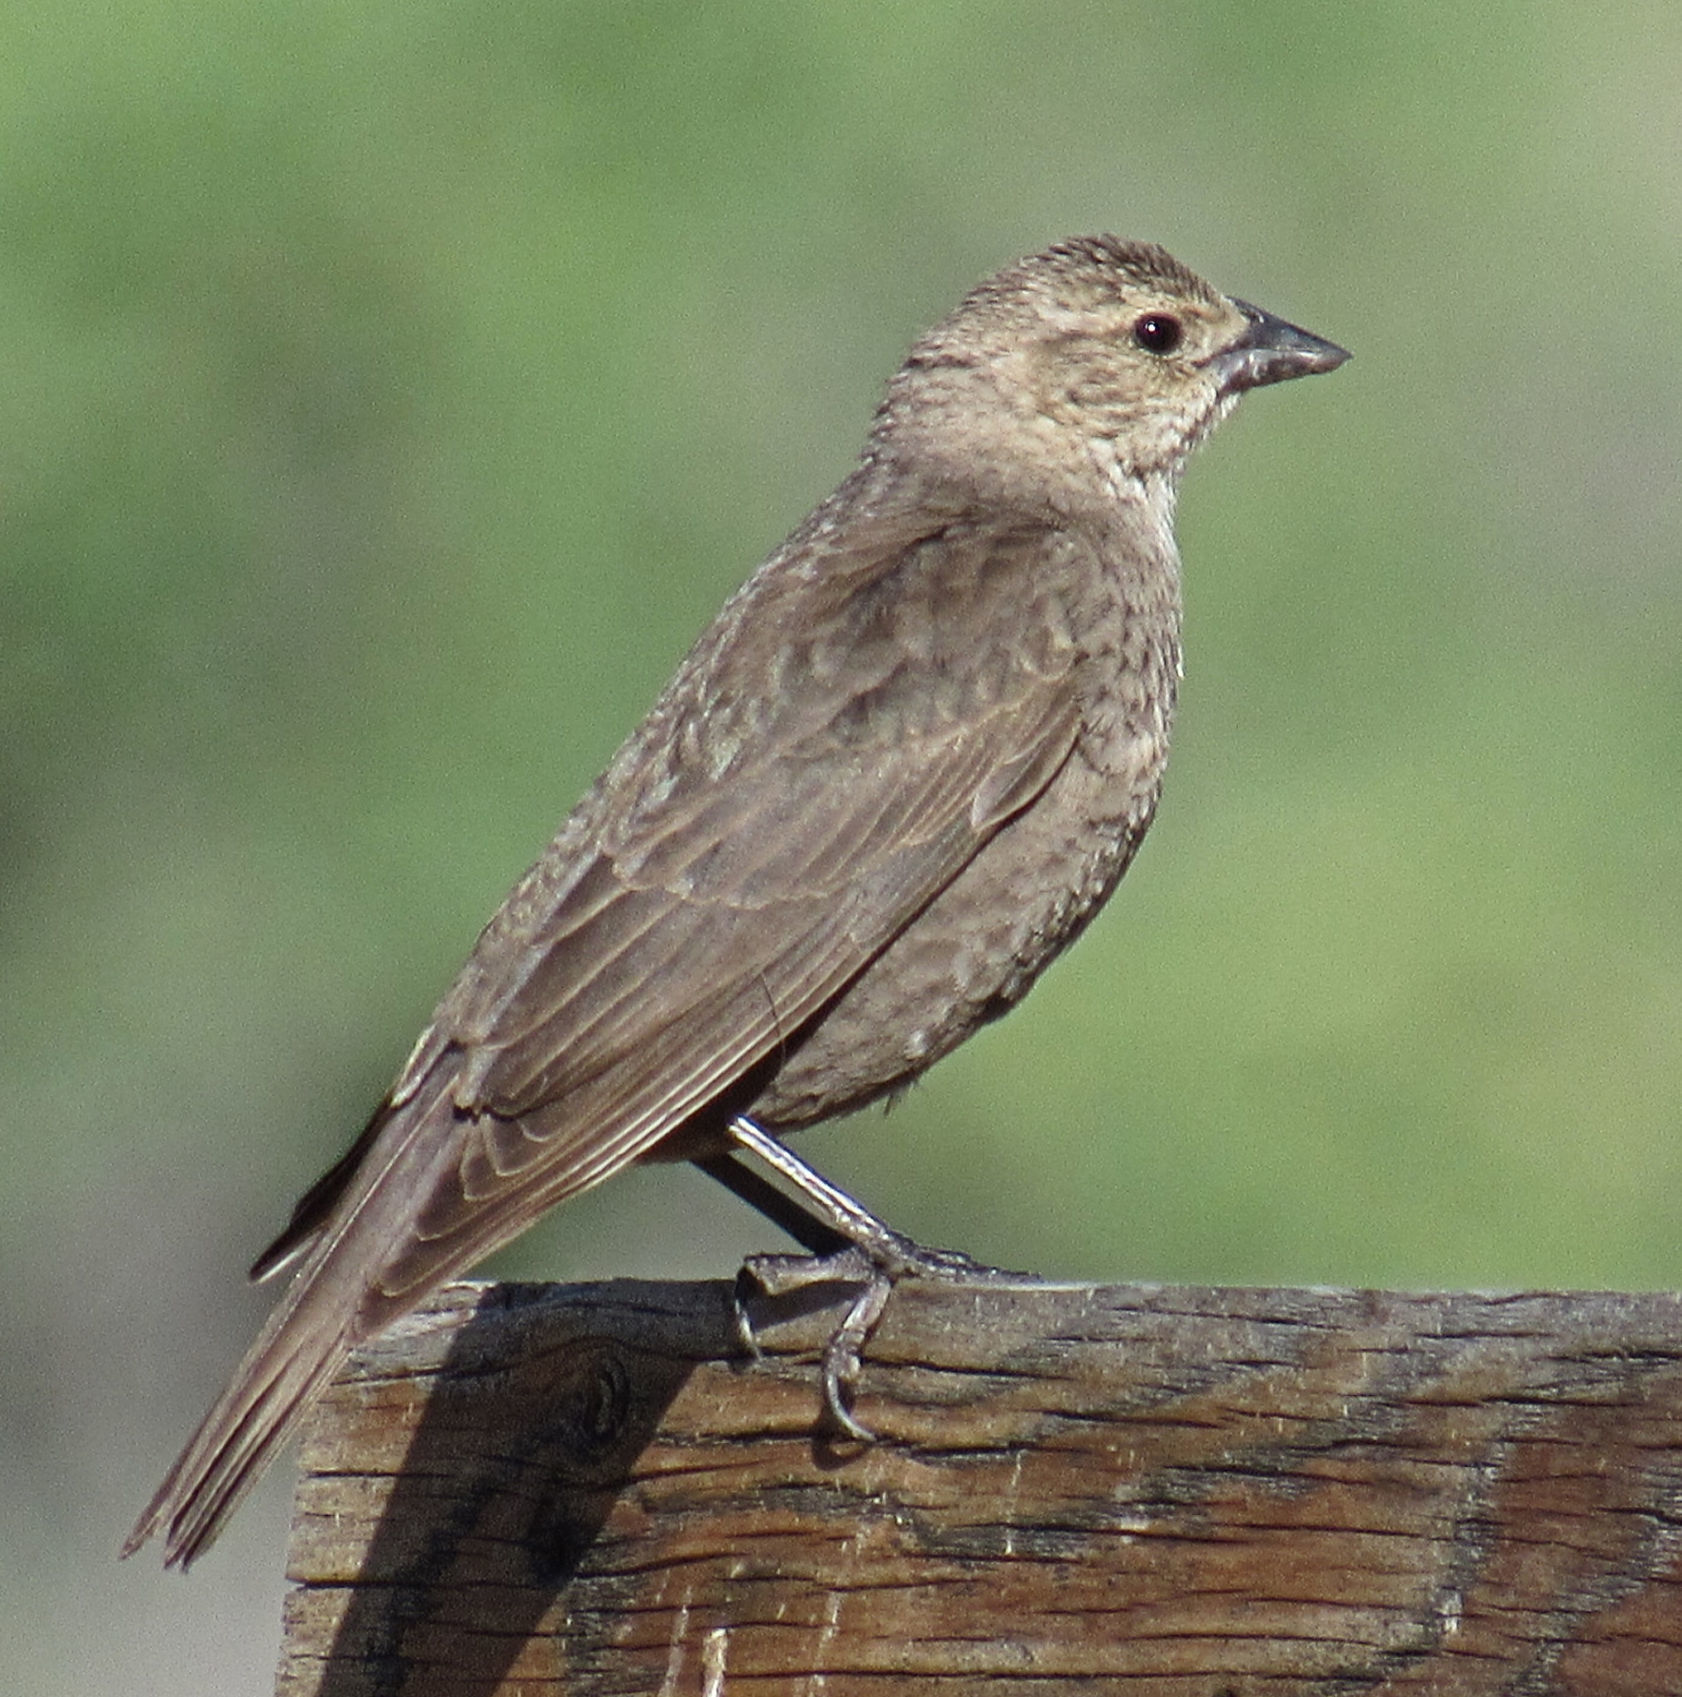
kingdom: Animalia
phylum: Chordata
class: Aves
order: Passeriformes
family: Icteridae
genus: Molothrus
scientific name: Molothrus ater
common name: Brown-headed cowbird
